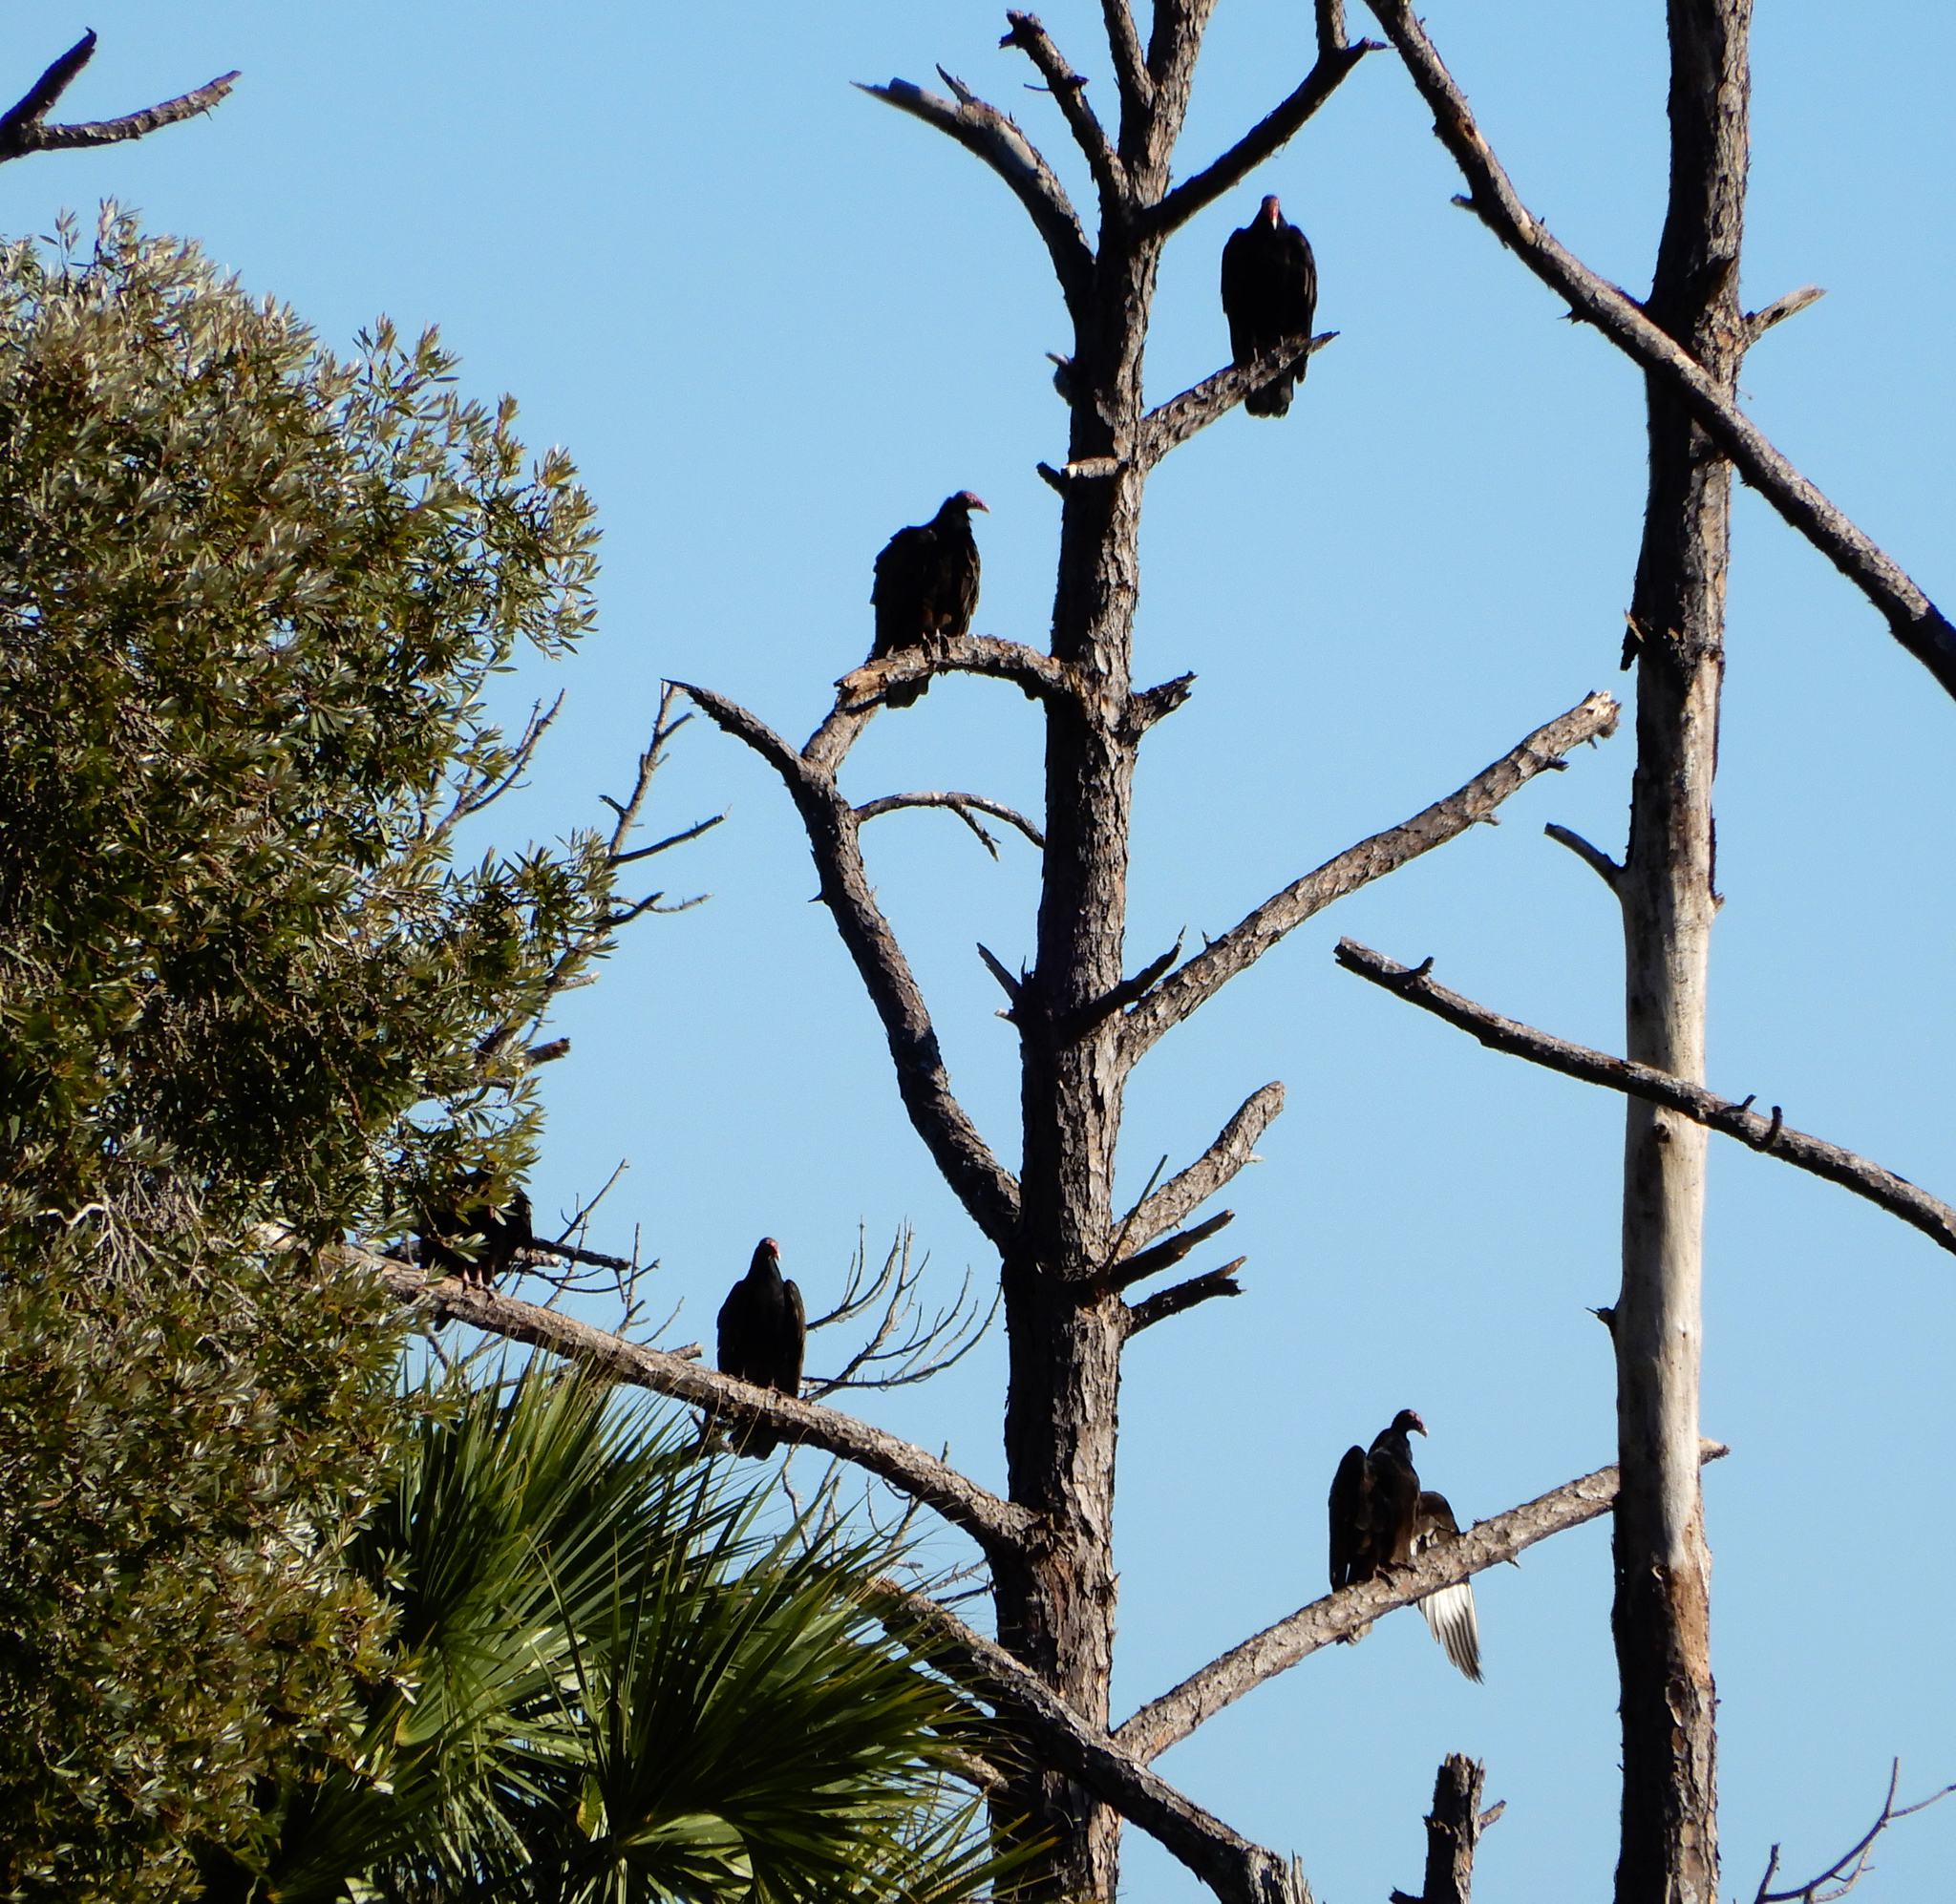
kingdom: Animalia
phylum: Chordata
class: Aves
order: Accipitriformes
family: Cathartidae
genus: Cathartes
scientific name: Cathartes aura
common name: Turkey vulture
